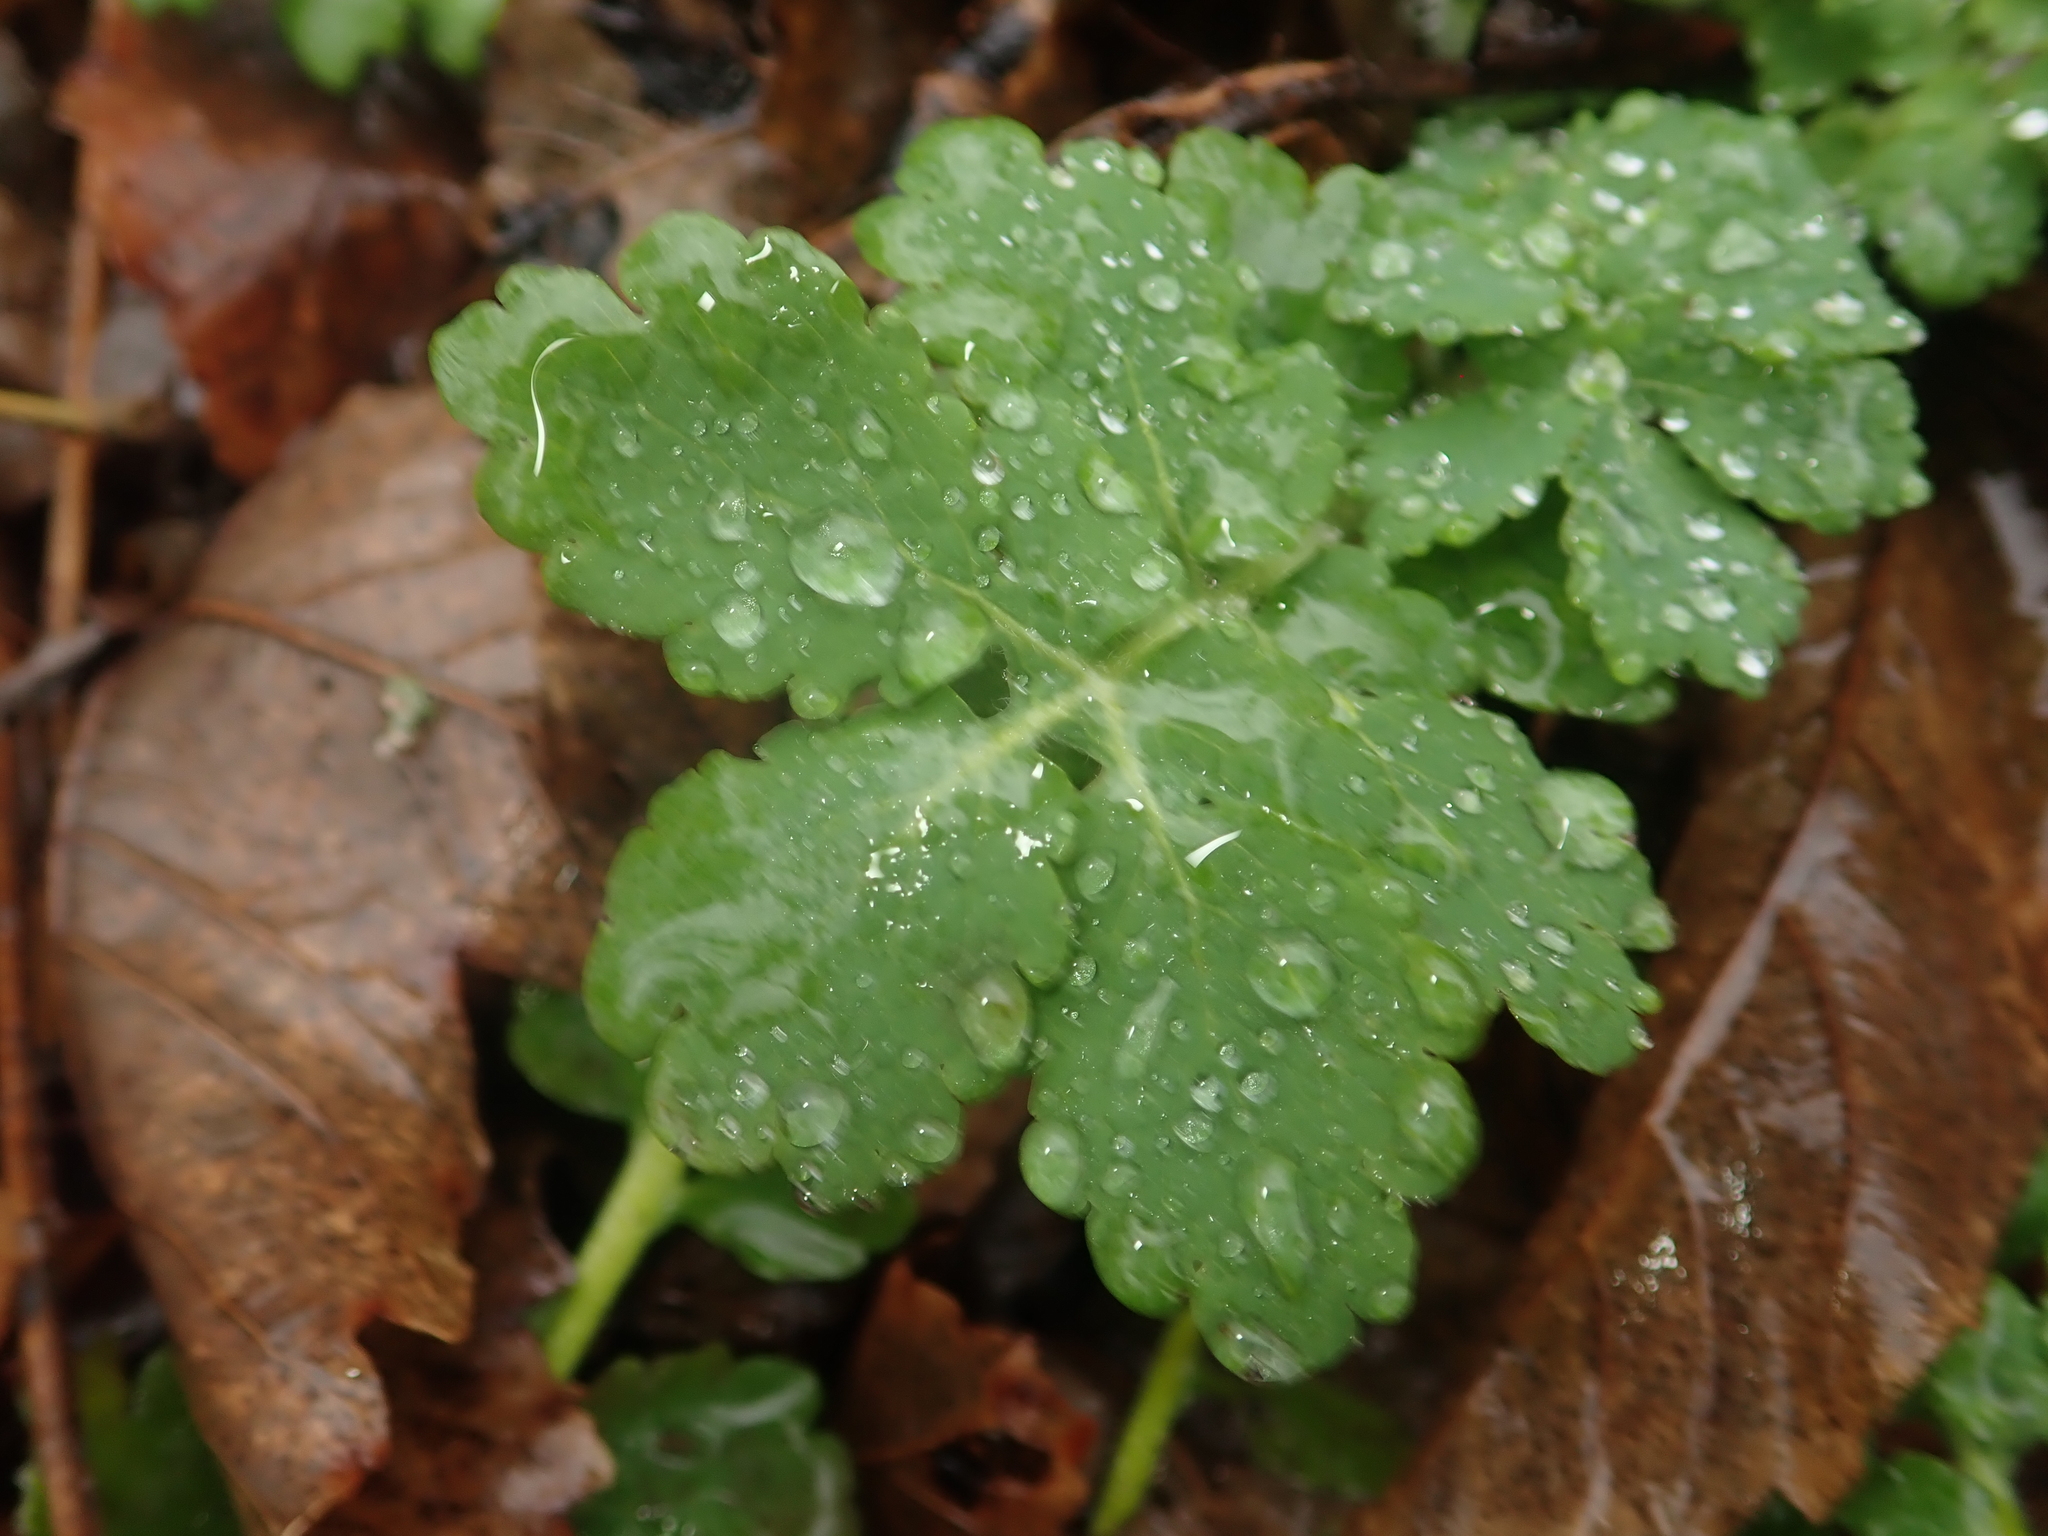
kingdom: Plantae
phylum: Tracheophyta
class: Magnoliopsida
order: Ranunculales
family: Papaveraceae
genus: Chelidonium
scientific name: Chelidonium majus
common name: Greater celandine
